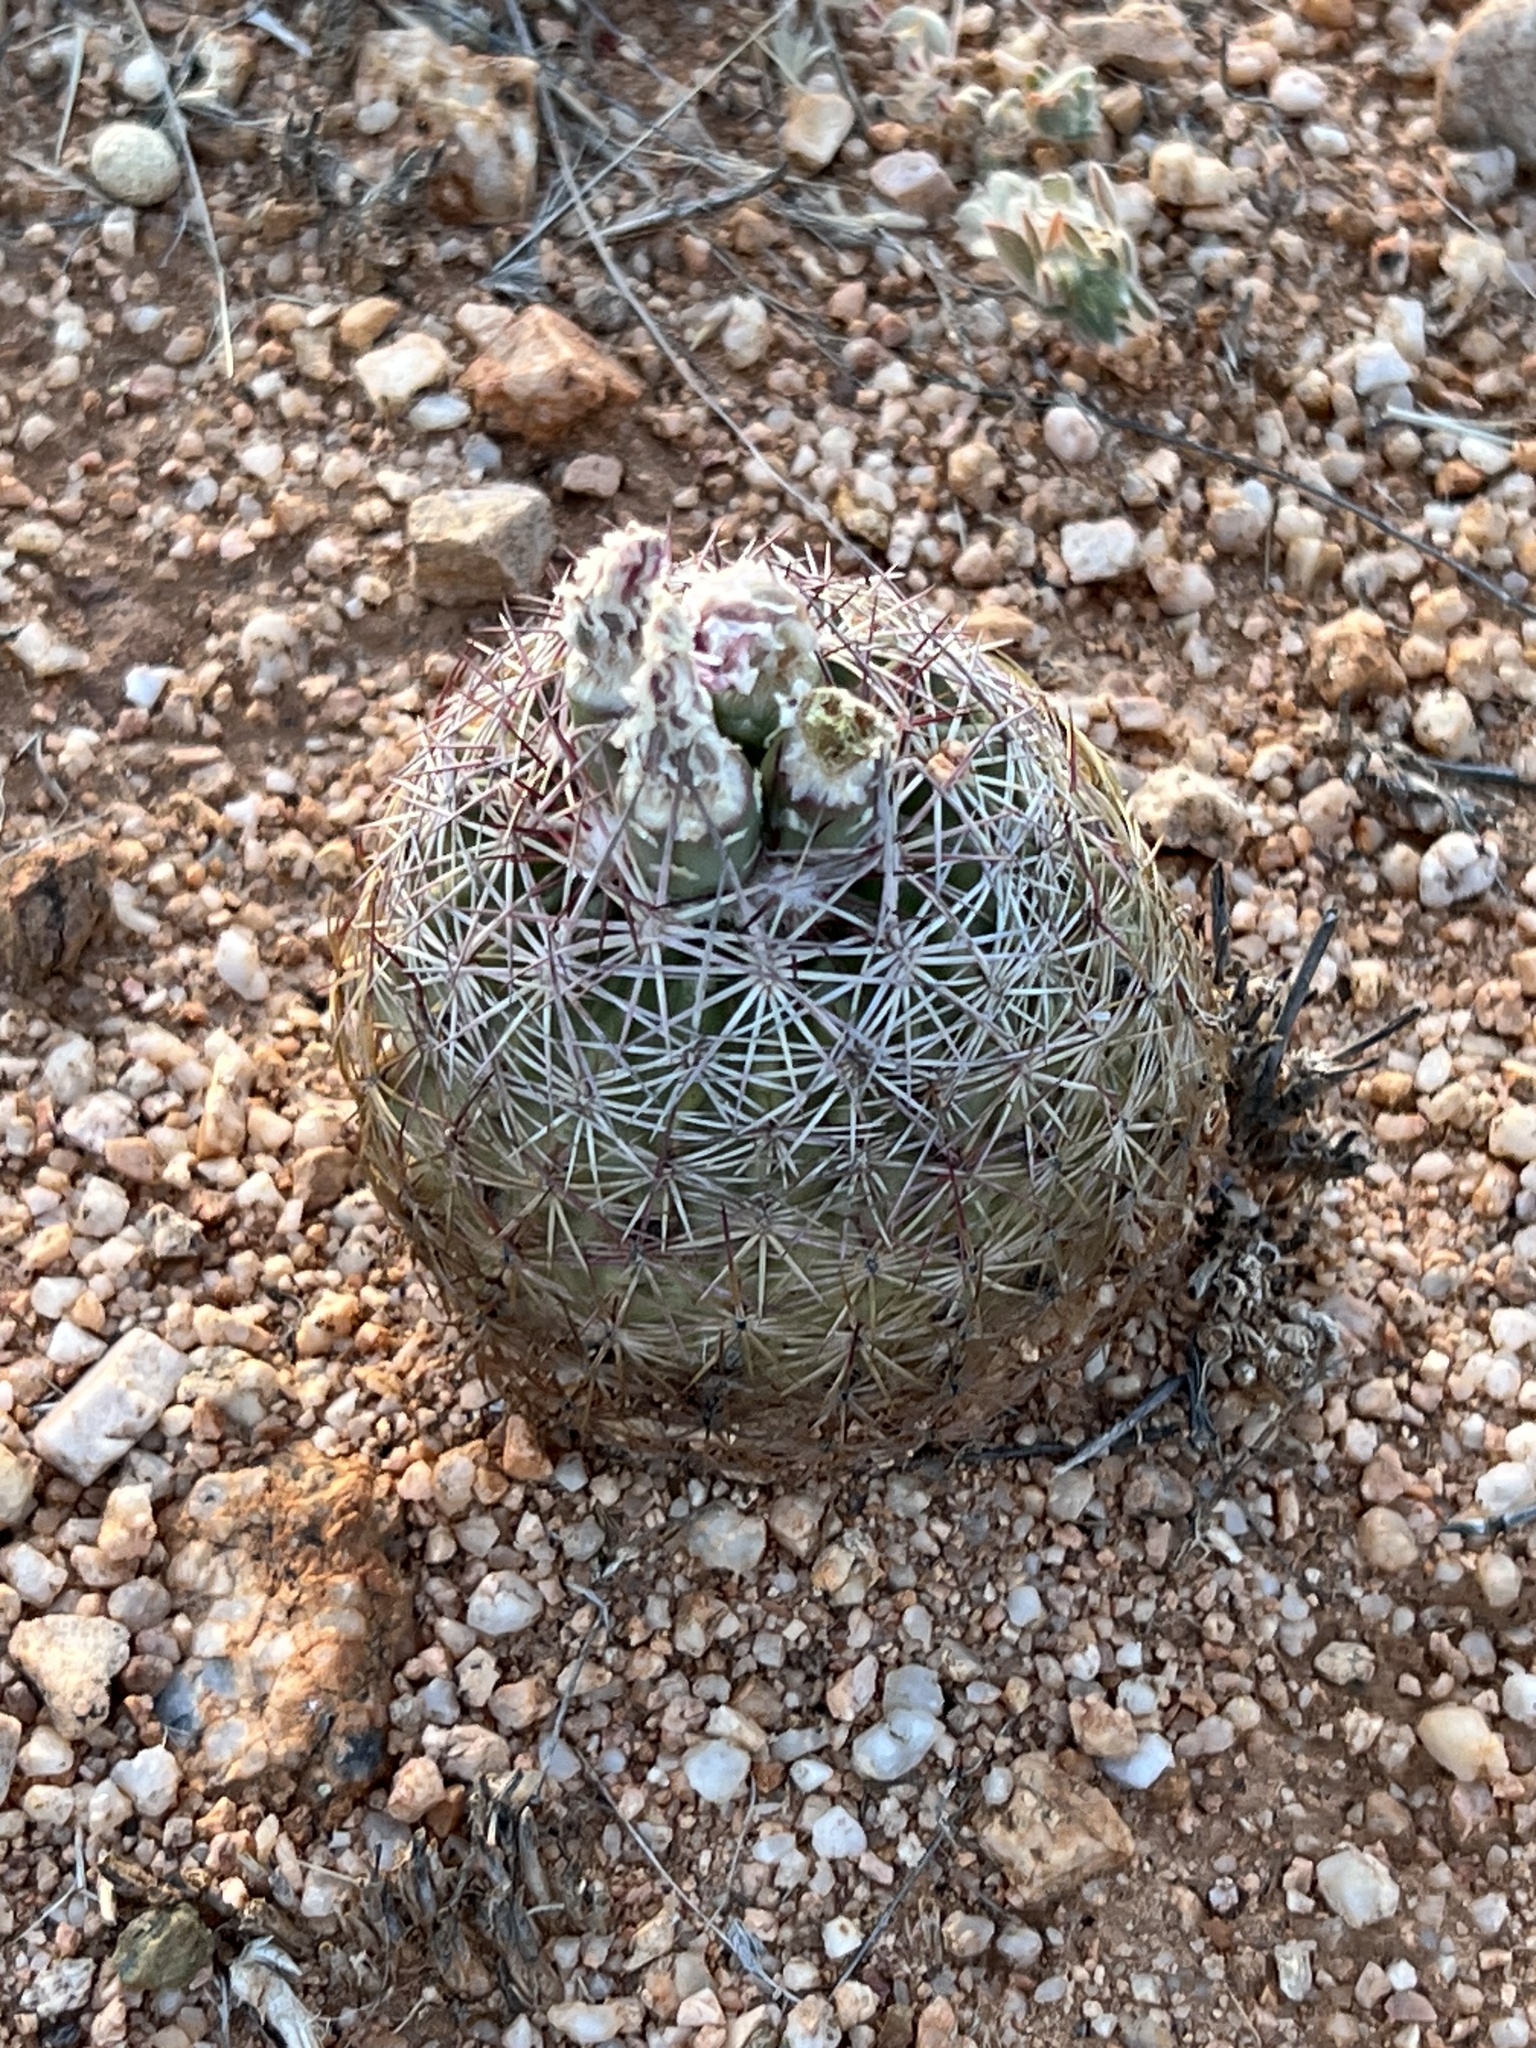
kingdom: Plantae
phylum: Tracheophyta
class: Magnoliopsida
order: Caryophyllales
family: Cactaceae
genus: Sclerocactus
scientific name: Sclerocactus johnsonii
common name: Eight-spine fishhook cactus
